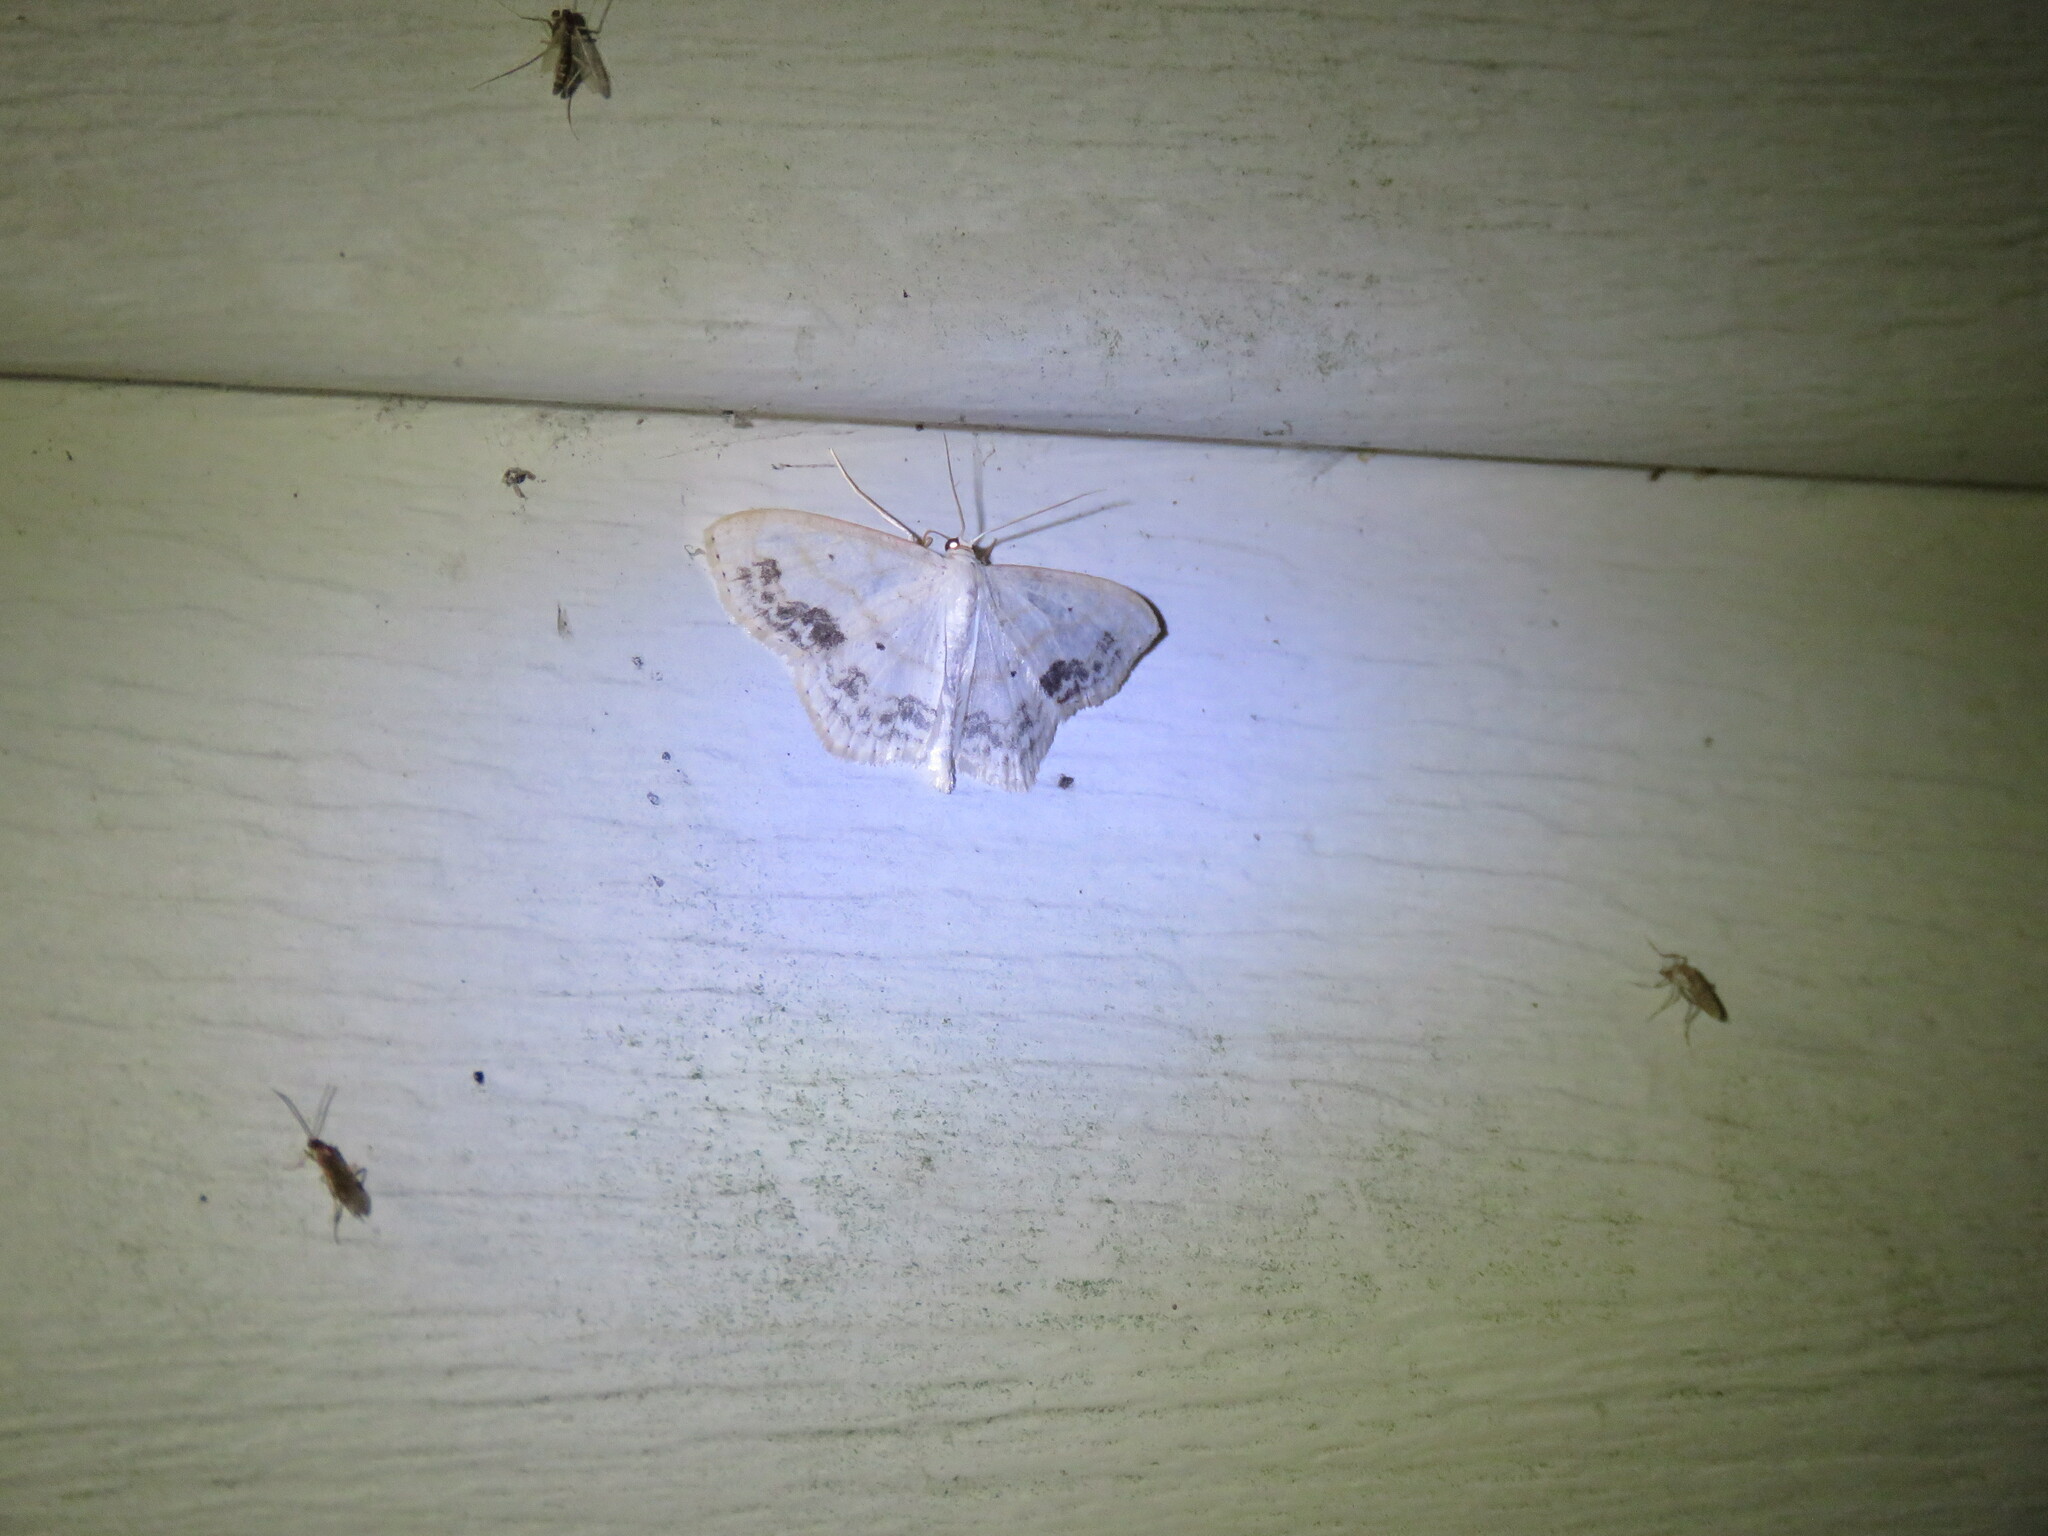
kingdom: Animalia
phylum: Arthropoda
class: Insecta
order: Lepidoptera
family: Geometridae
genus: Scopula
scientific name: Scopula limboundata
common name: Large lace border
